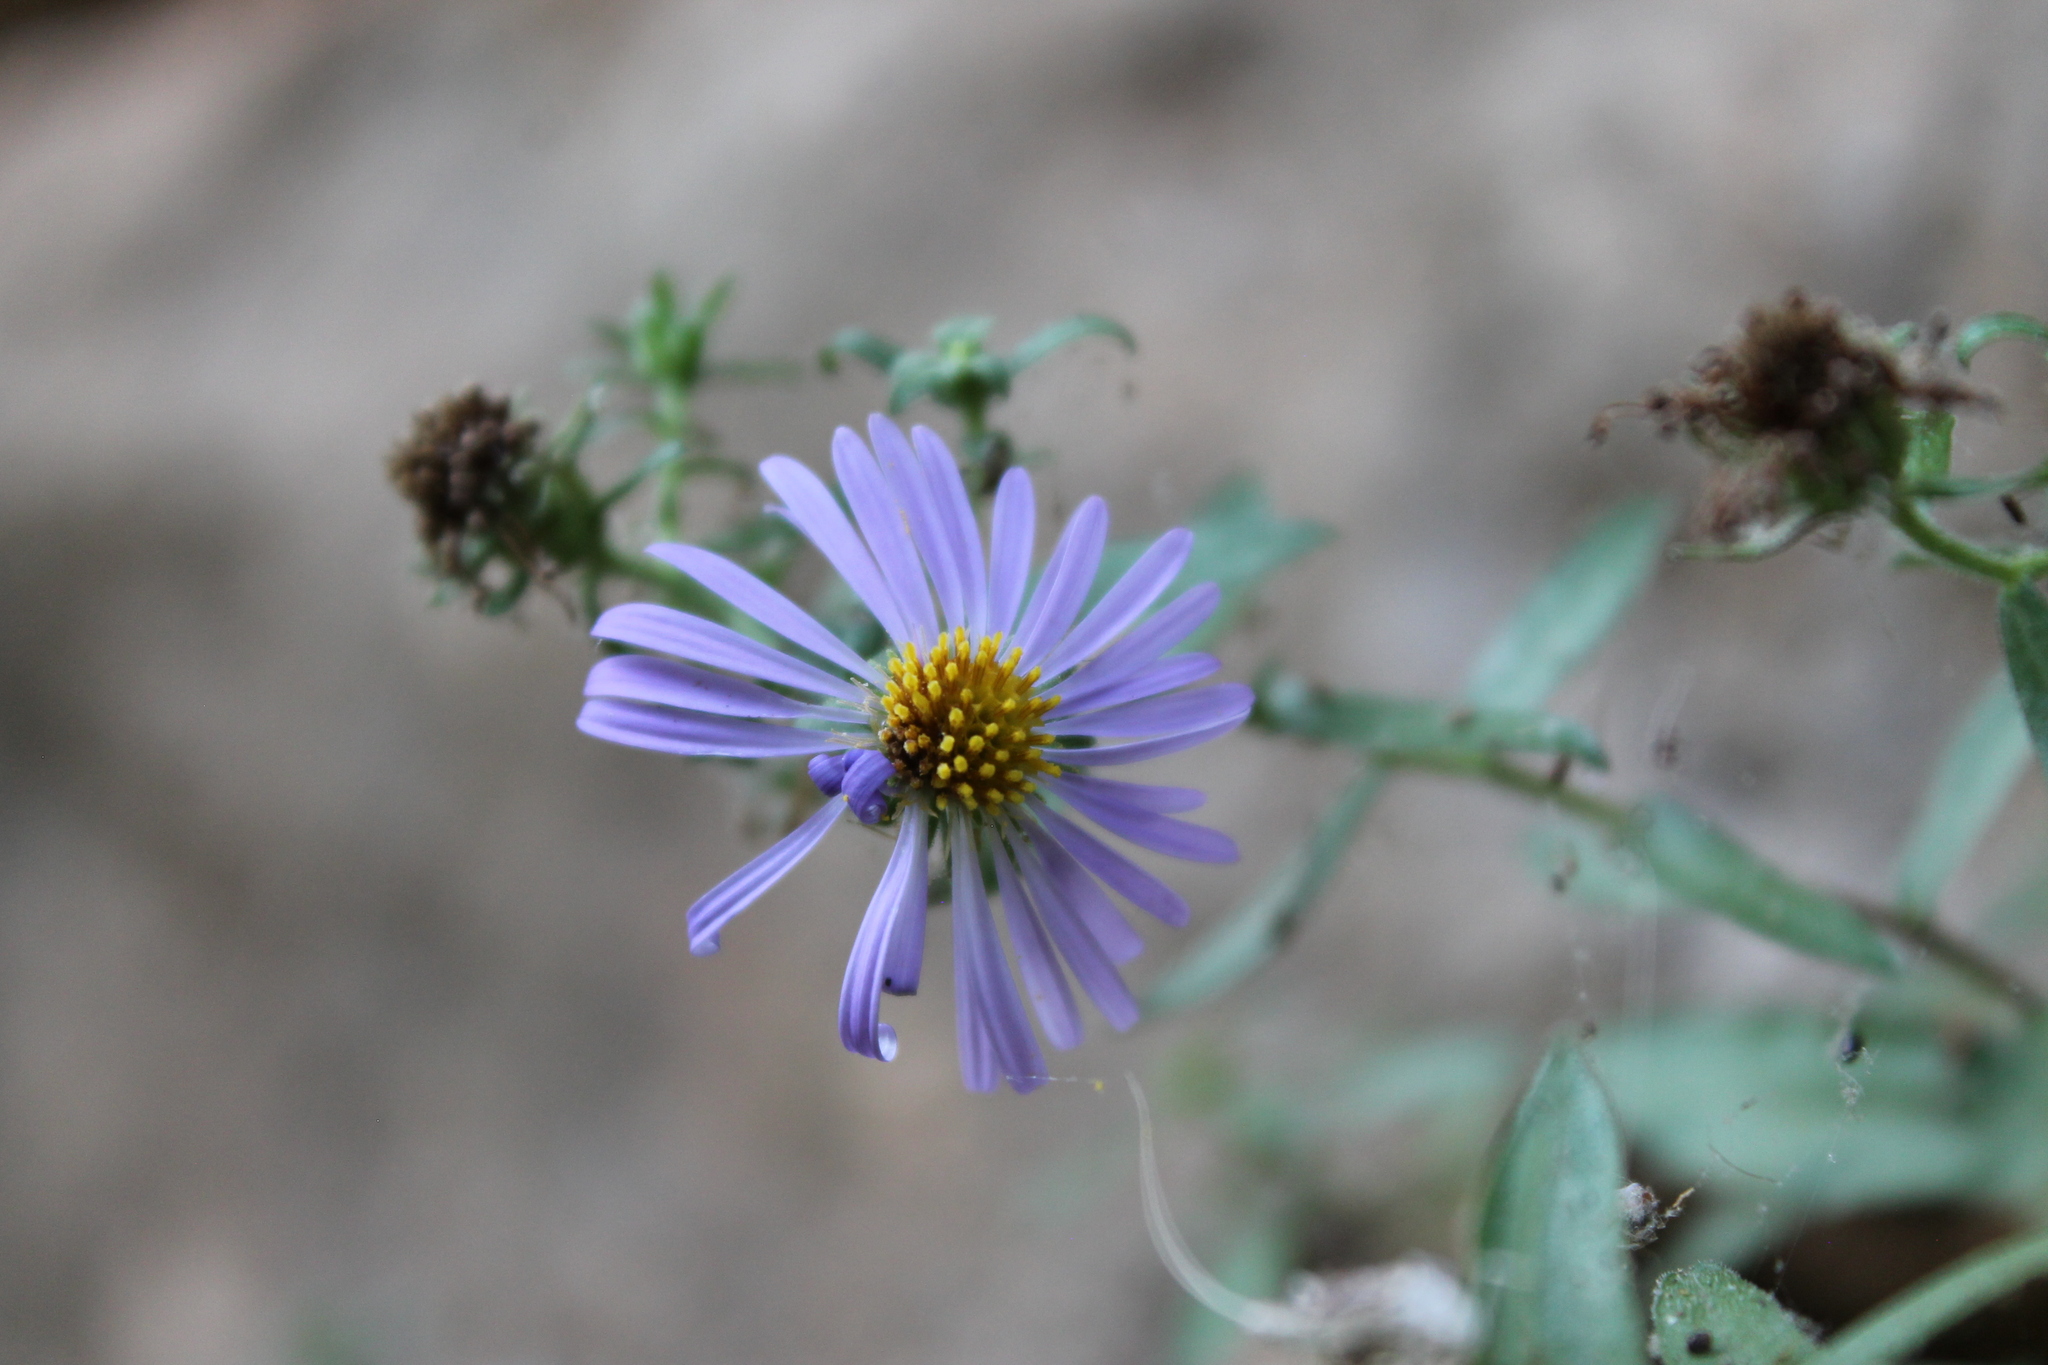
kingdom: Plantae
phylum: Tracheophyta
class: Magnoliopsida
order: Asterales
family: Asteraceae
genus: Symphyotrichum
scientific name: Symphyotrichum oblongifolium
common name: Aromatic aster
